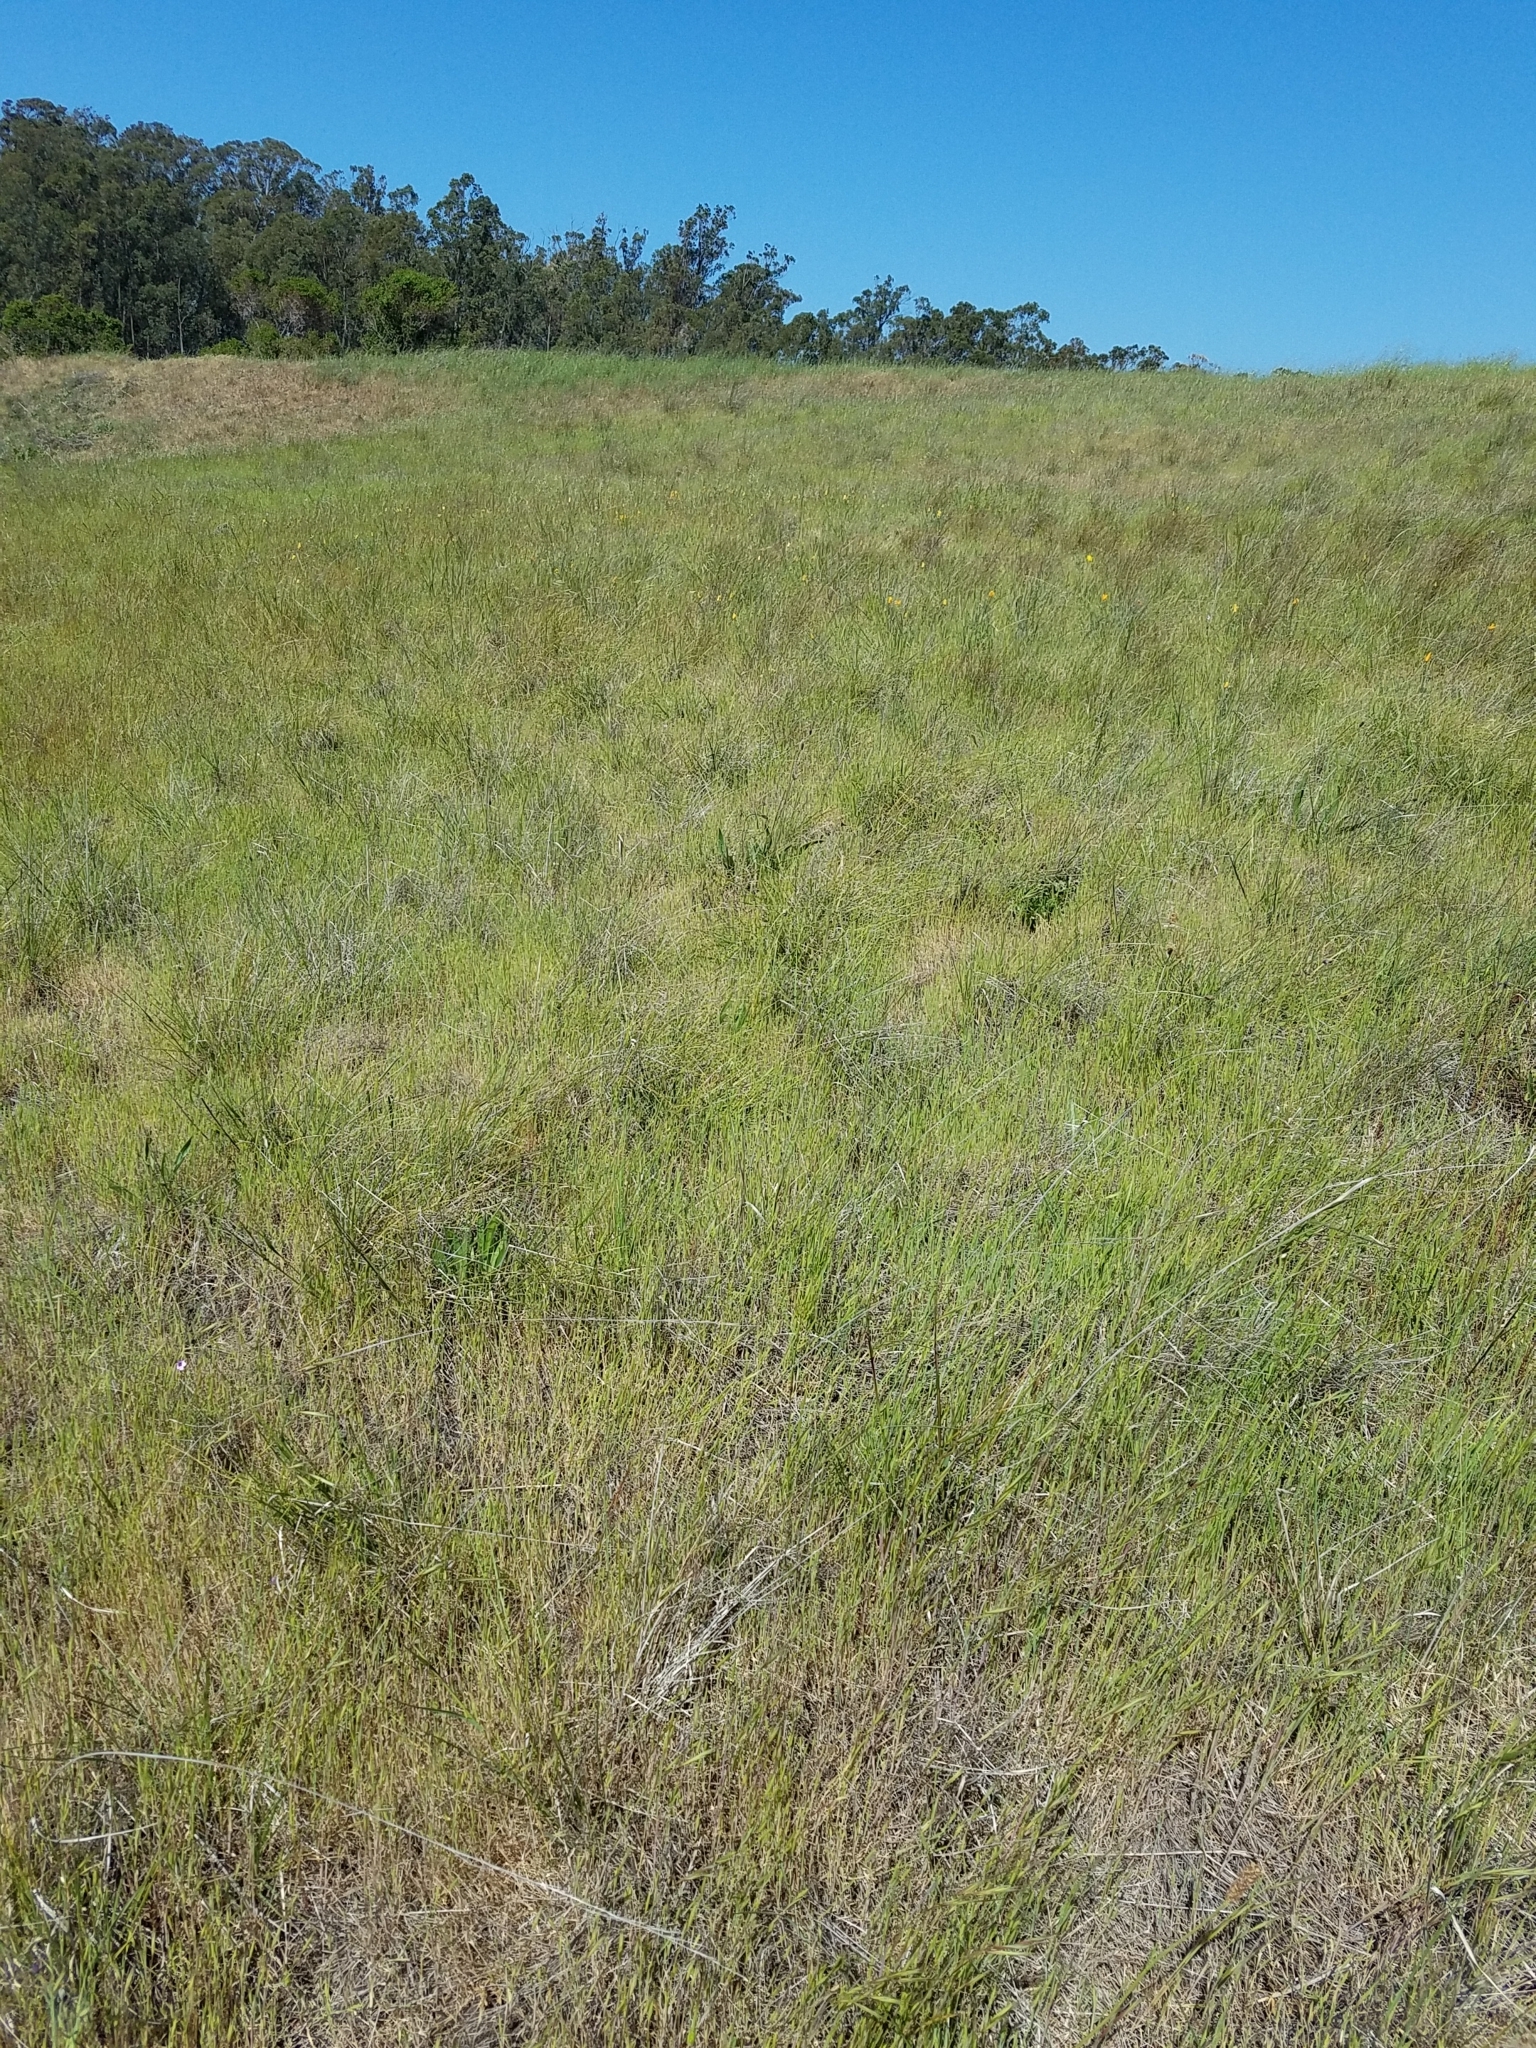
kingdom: Plantae
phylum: Tracheophyta
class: Liliopsida
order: Poales
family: Poaceae
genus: Brachypodium
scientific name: Brachypodium distachyon
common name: Stiff brome
